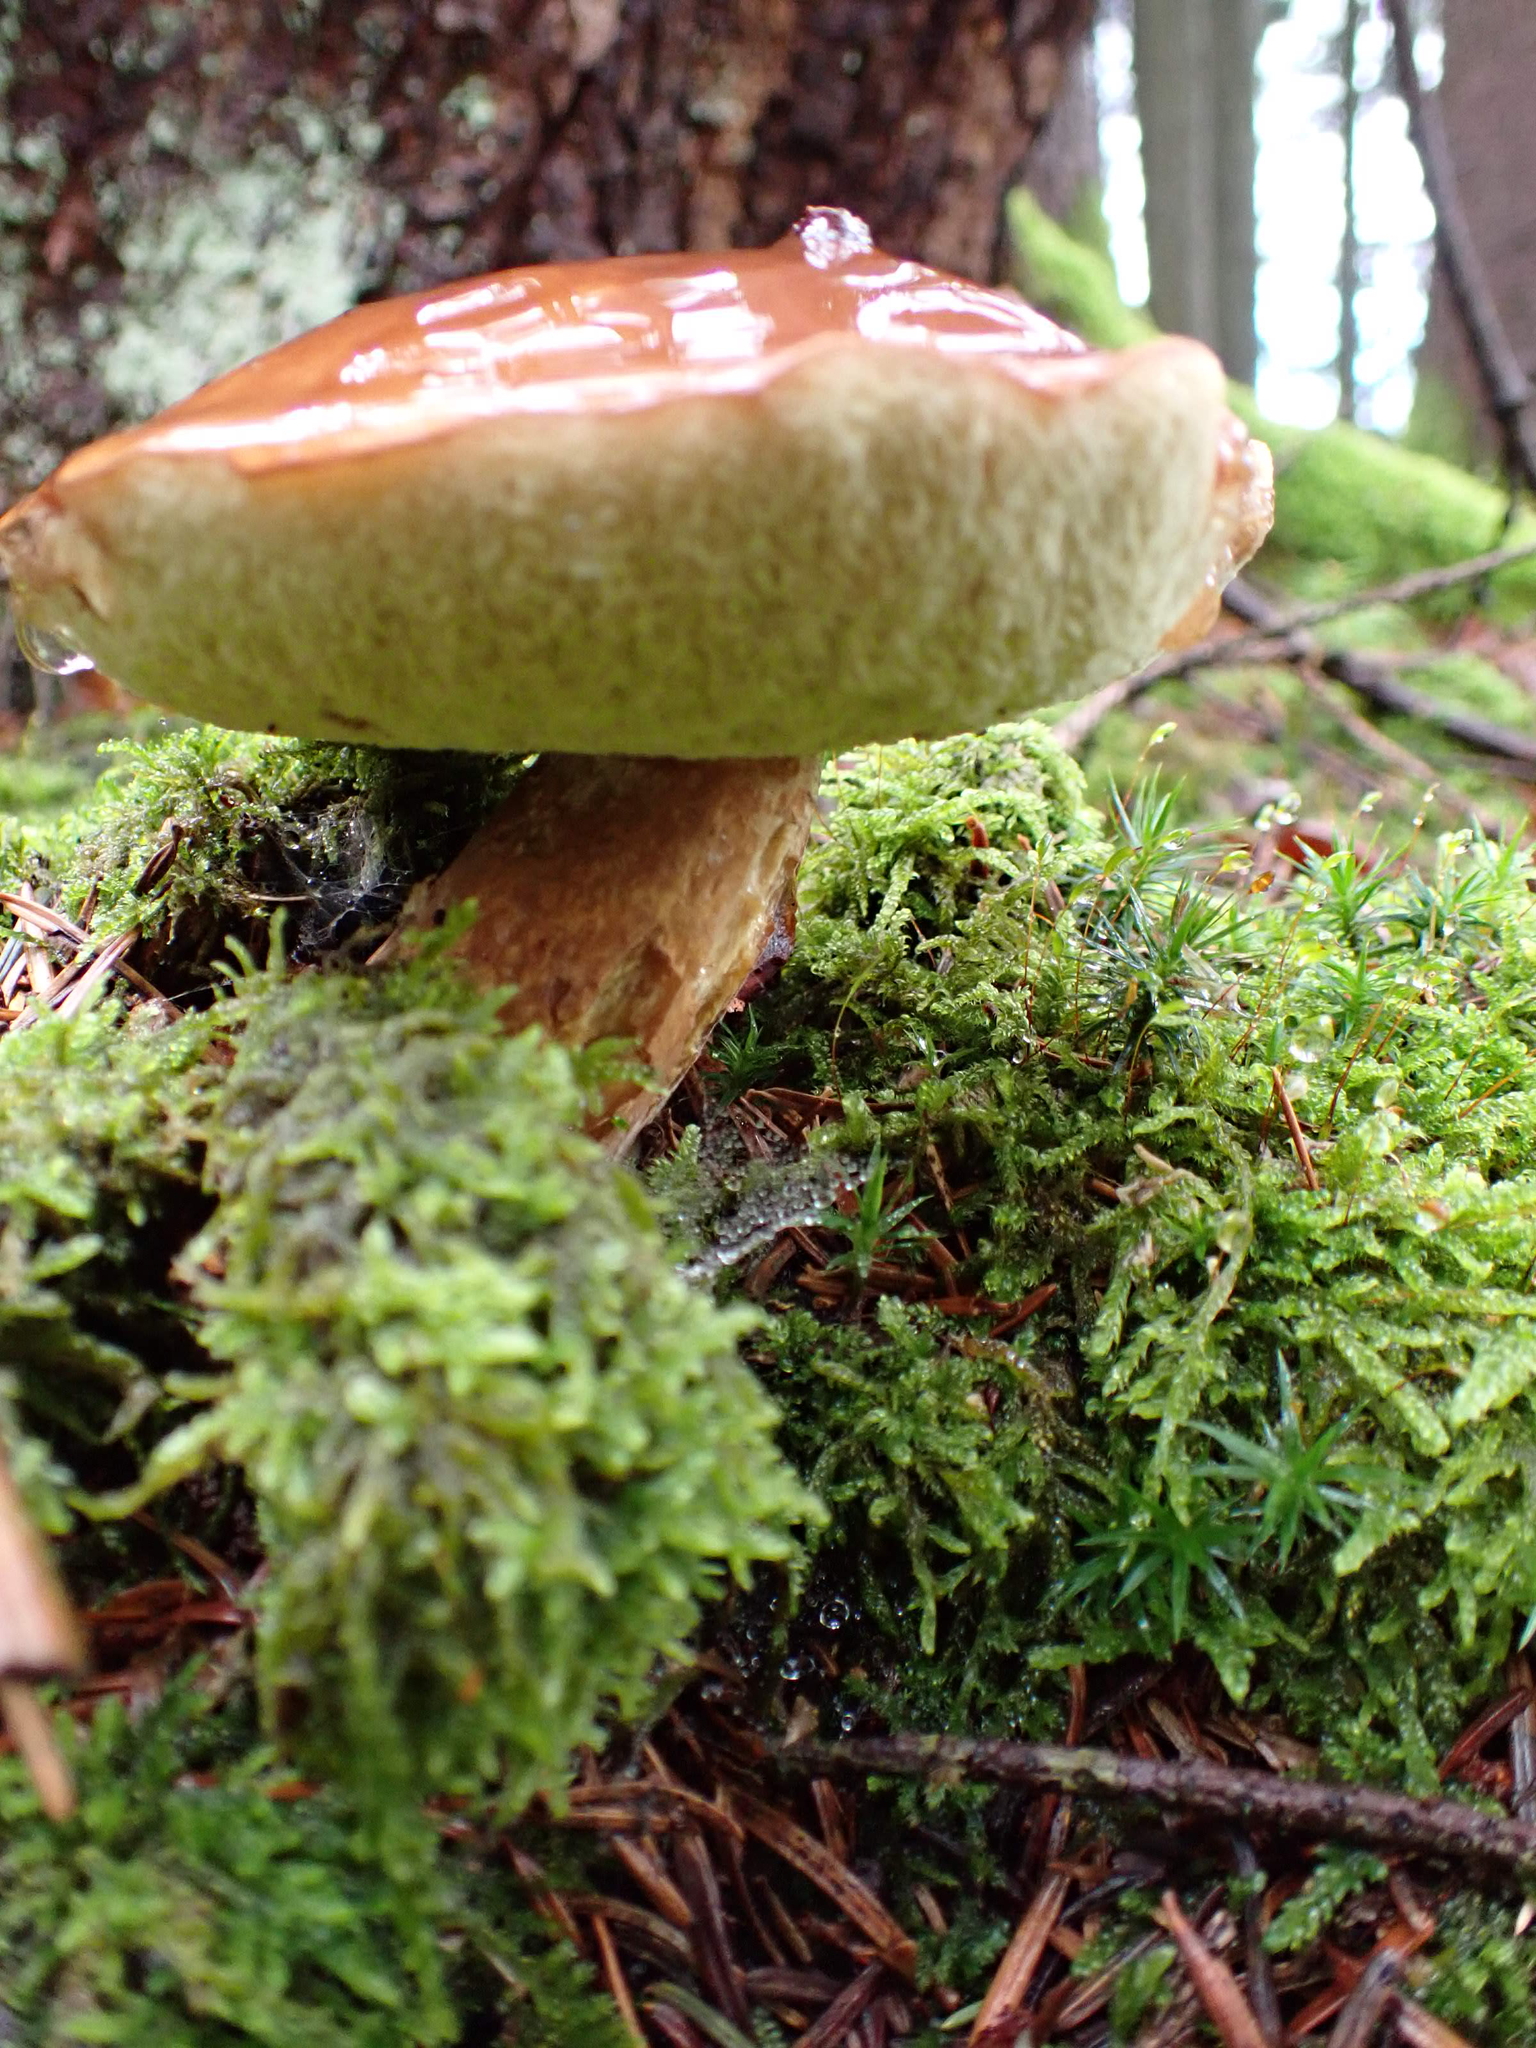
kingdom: Fungi
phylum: Basidiomycota
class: Agaricomycetes
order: Boletales
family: Boletaceae
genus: Imleria
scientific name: Imleria badia
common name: Bay bolete
